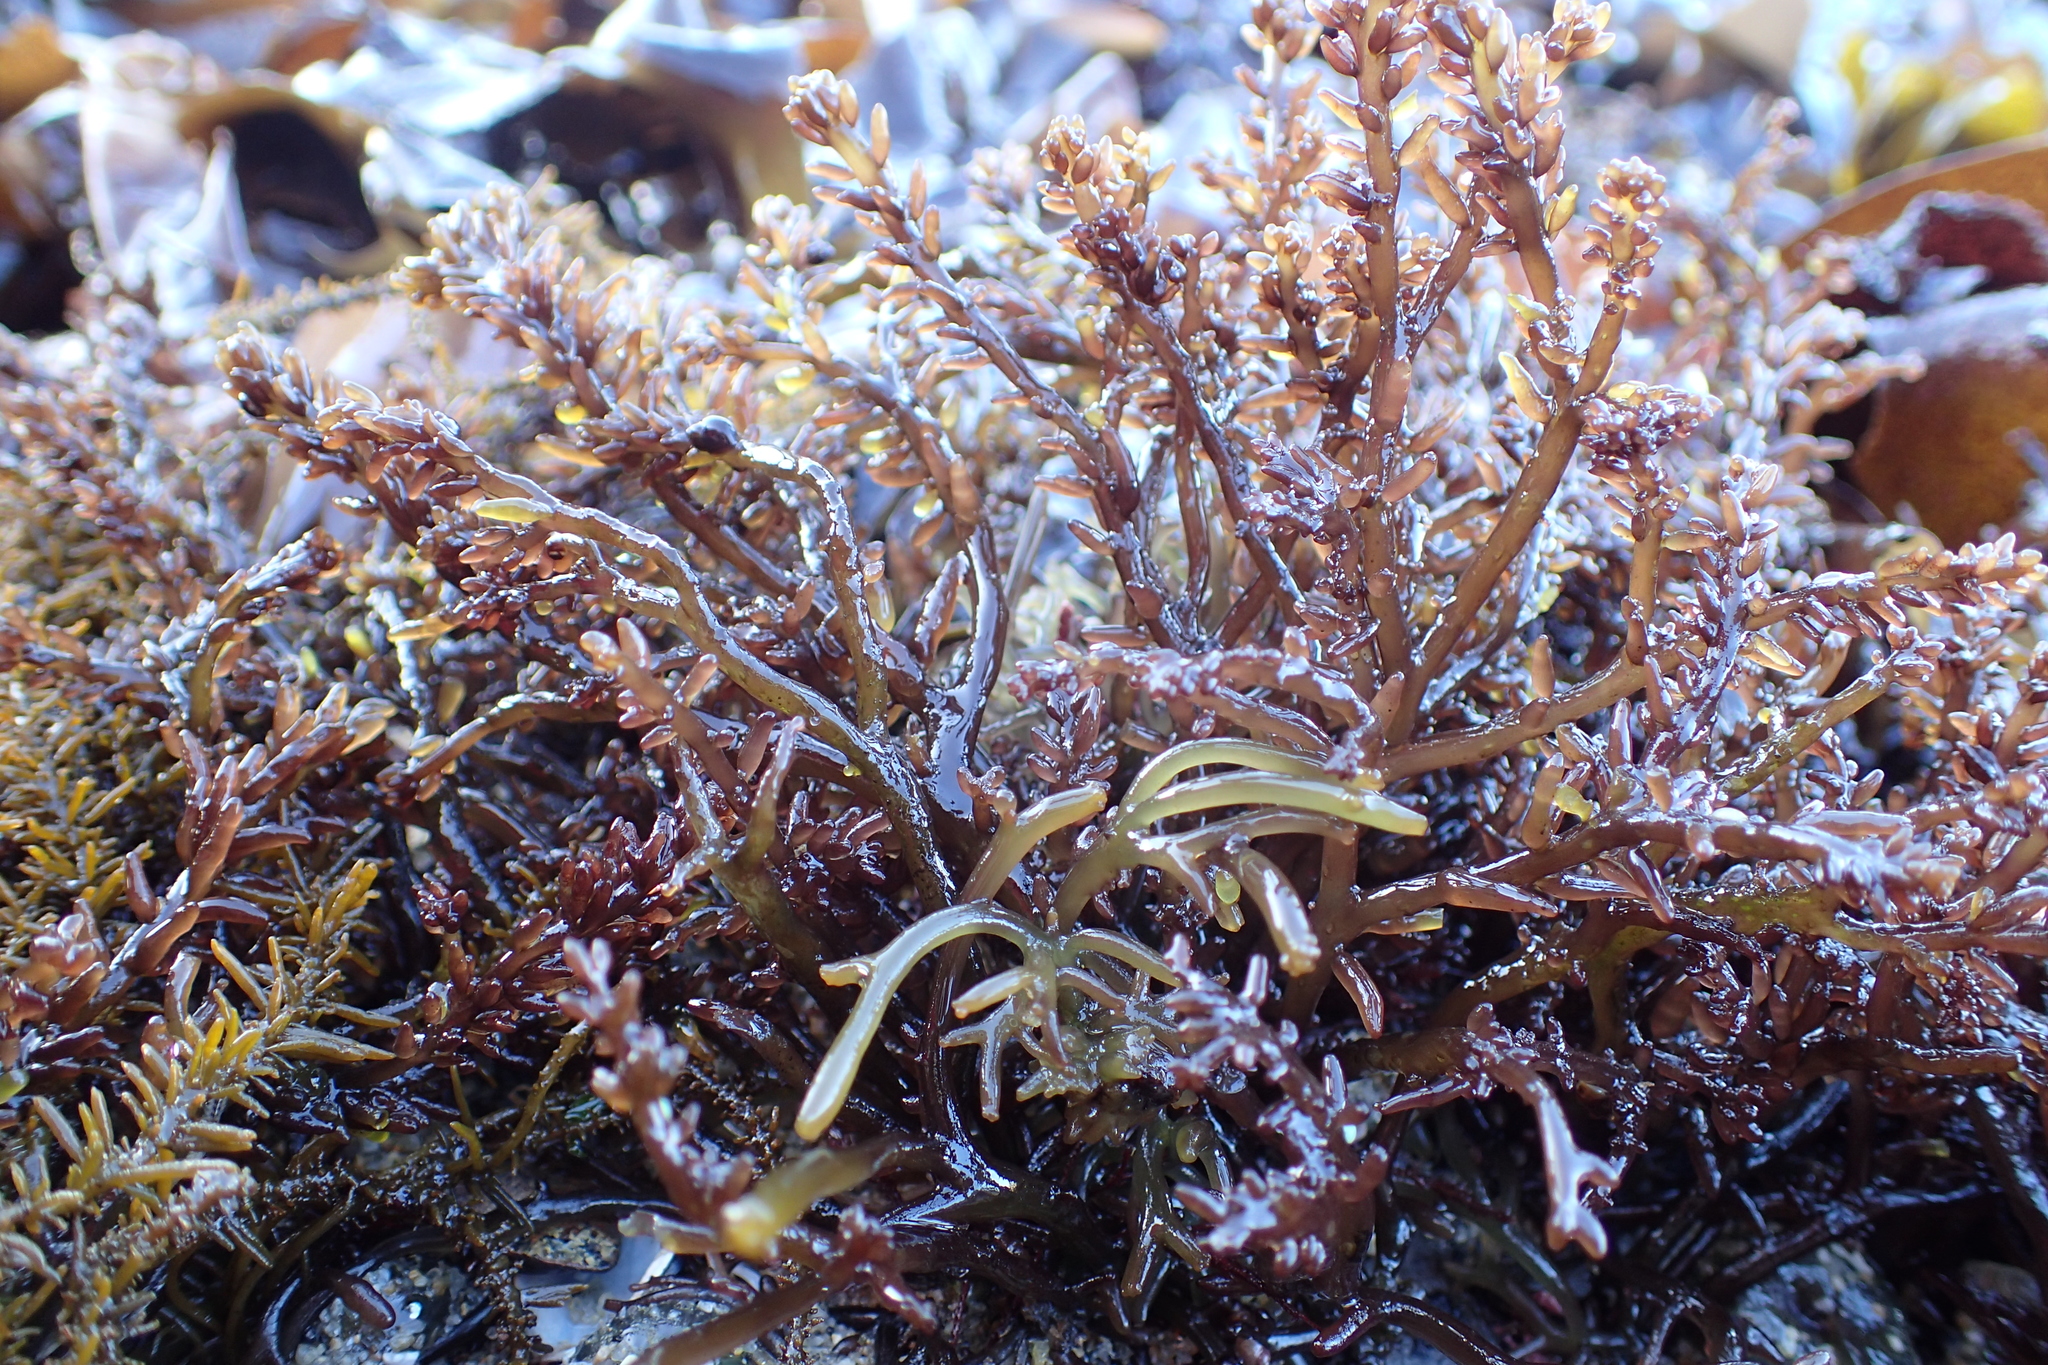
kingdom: Plantae
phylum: Rhodophyta
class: Florideophyceae
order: Rhodymeniales
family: Champiaceae
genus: Neogastroclonium
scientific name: Neogastroclonium subarticulatum
